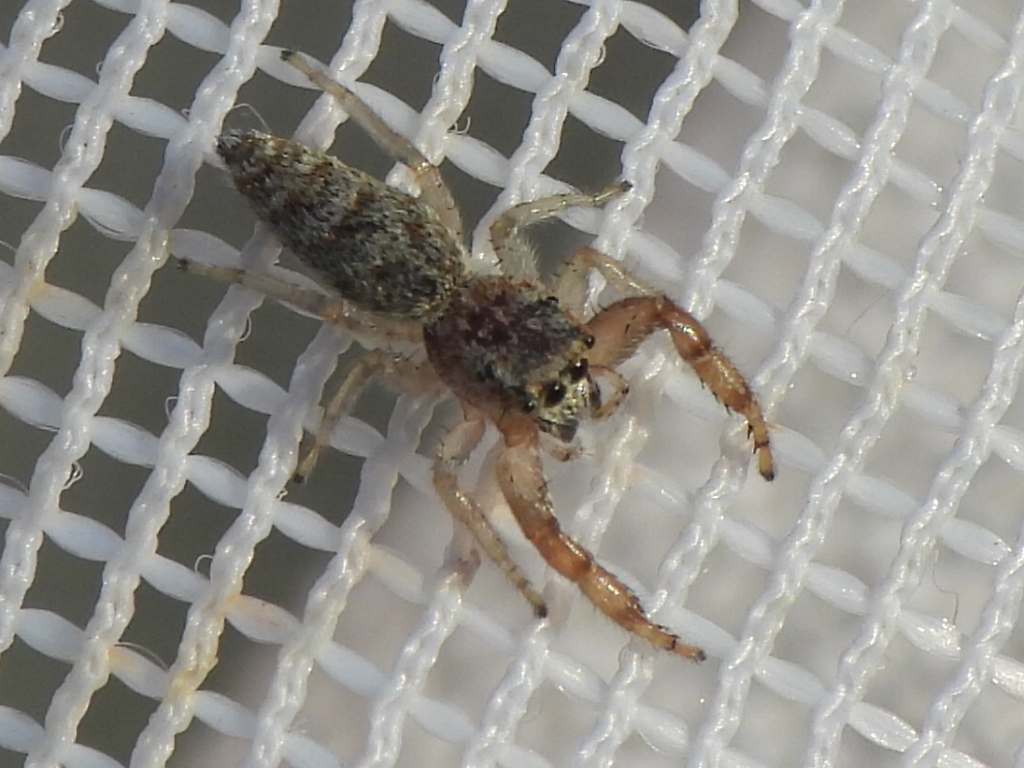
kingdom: Animalia
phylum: Arthropoda
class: Arachnida
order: Araneae
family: Salticidae
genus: Hentzia
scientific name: Hentzia palmarum
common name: Common hentz jumping spider
